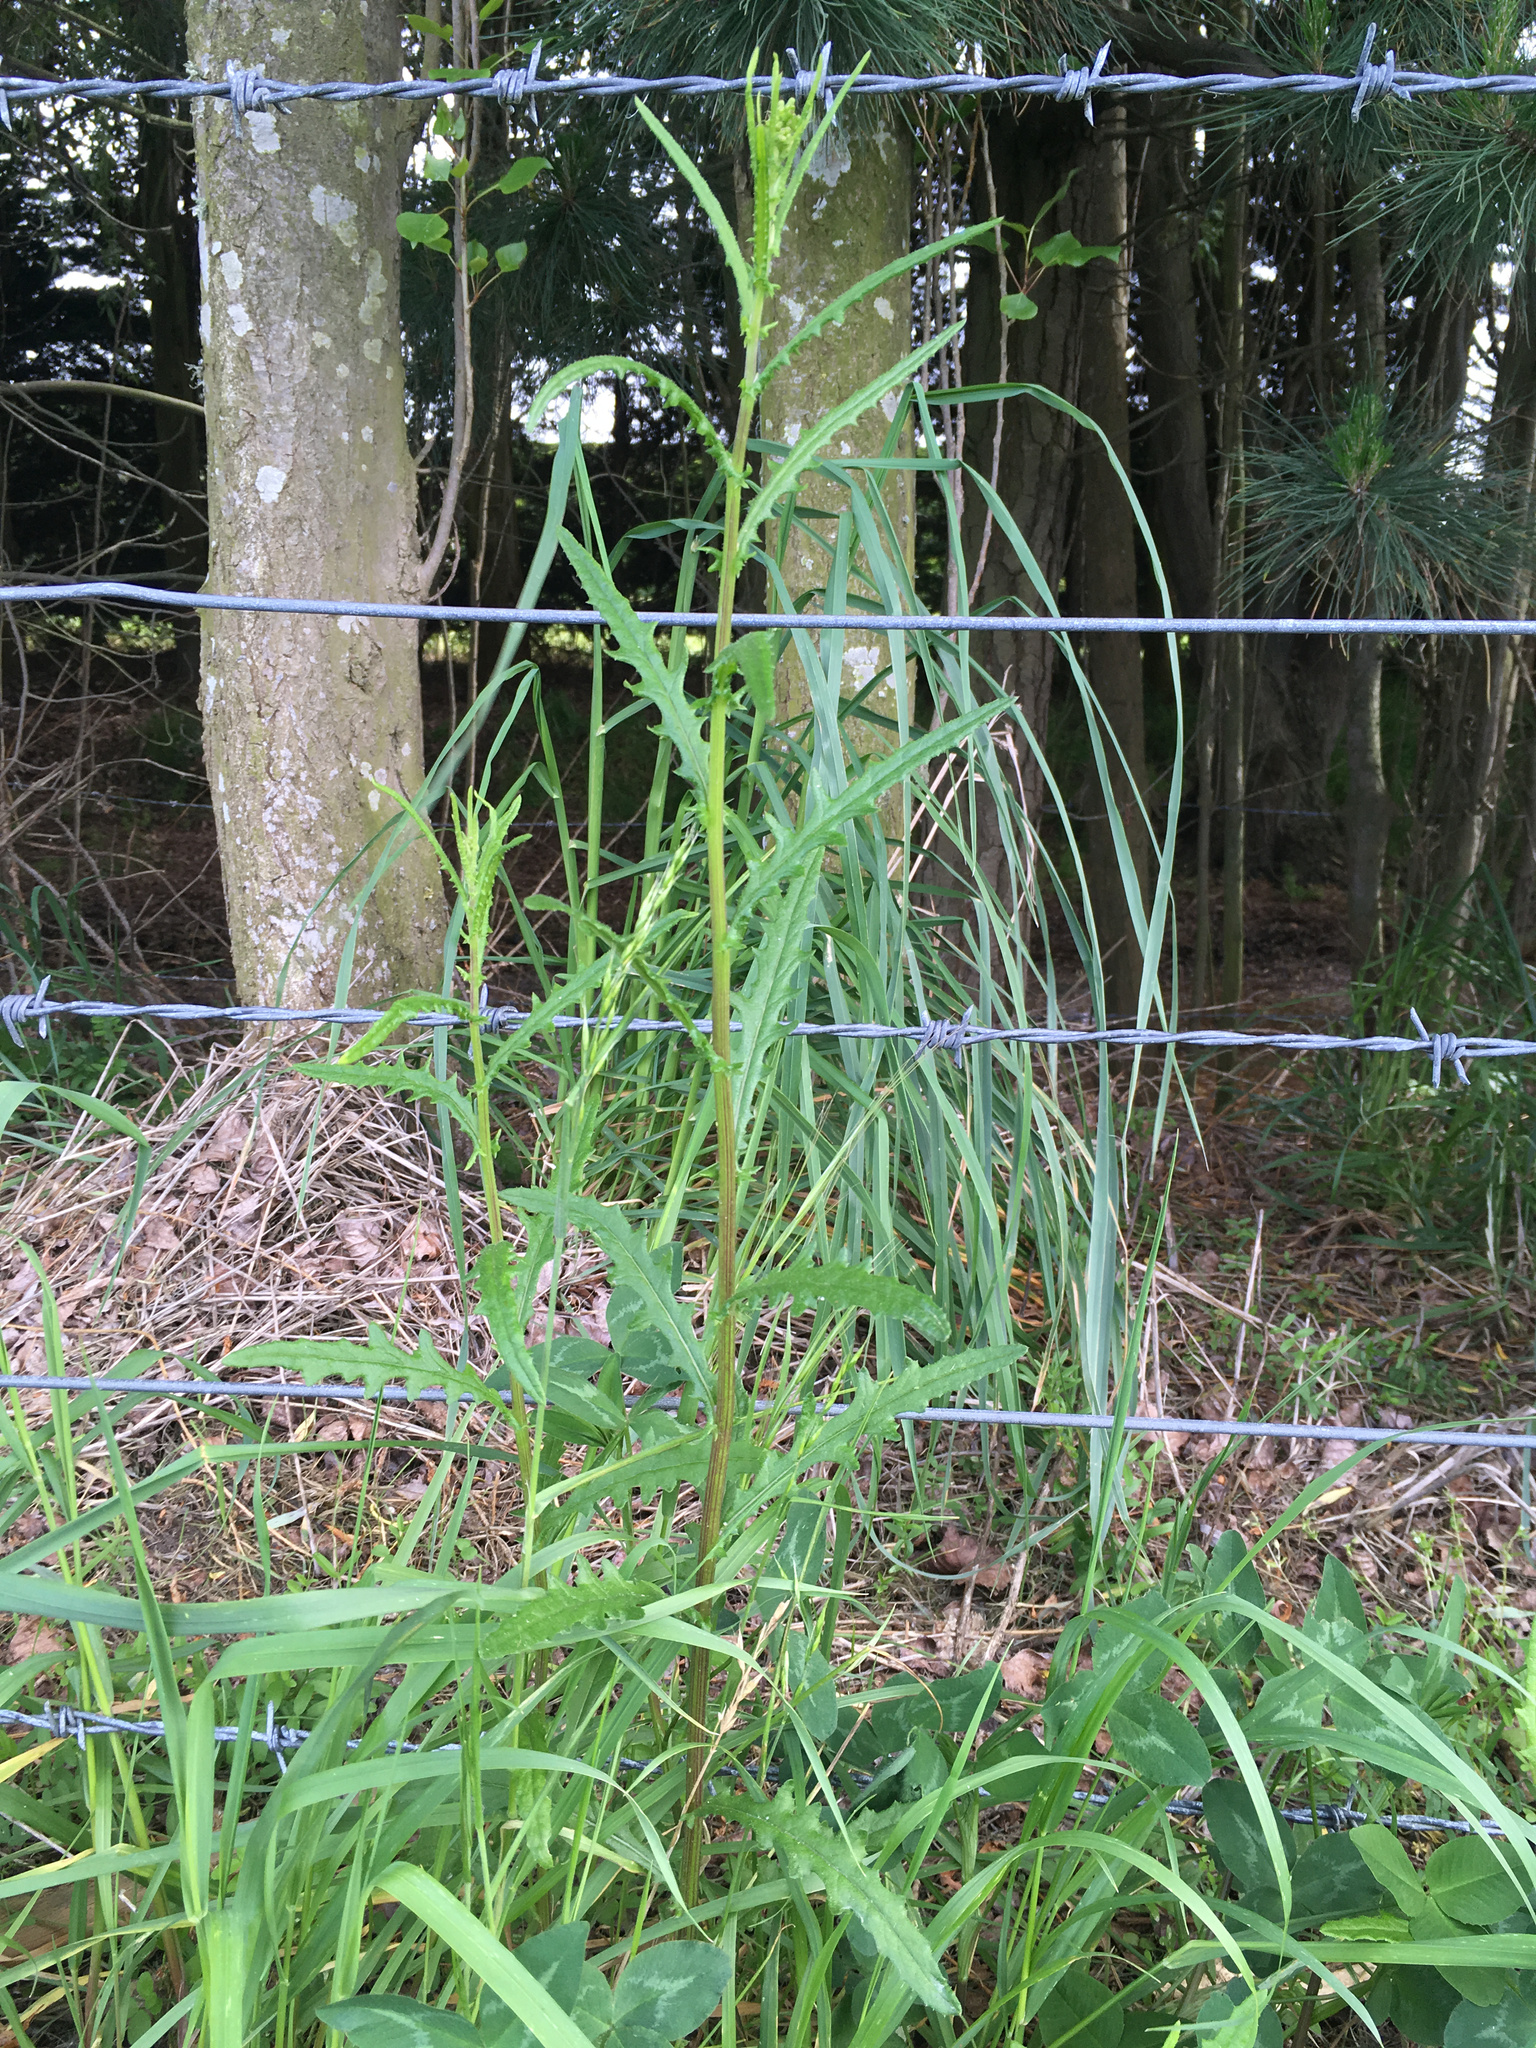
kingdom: Plantae
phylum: Tracheophyta
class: Magnoliopsida
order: Asterales
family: Asteraceae
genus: Senecio
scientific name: Senecio hispidulus
